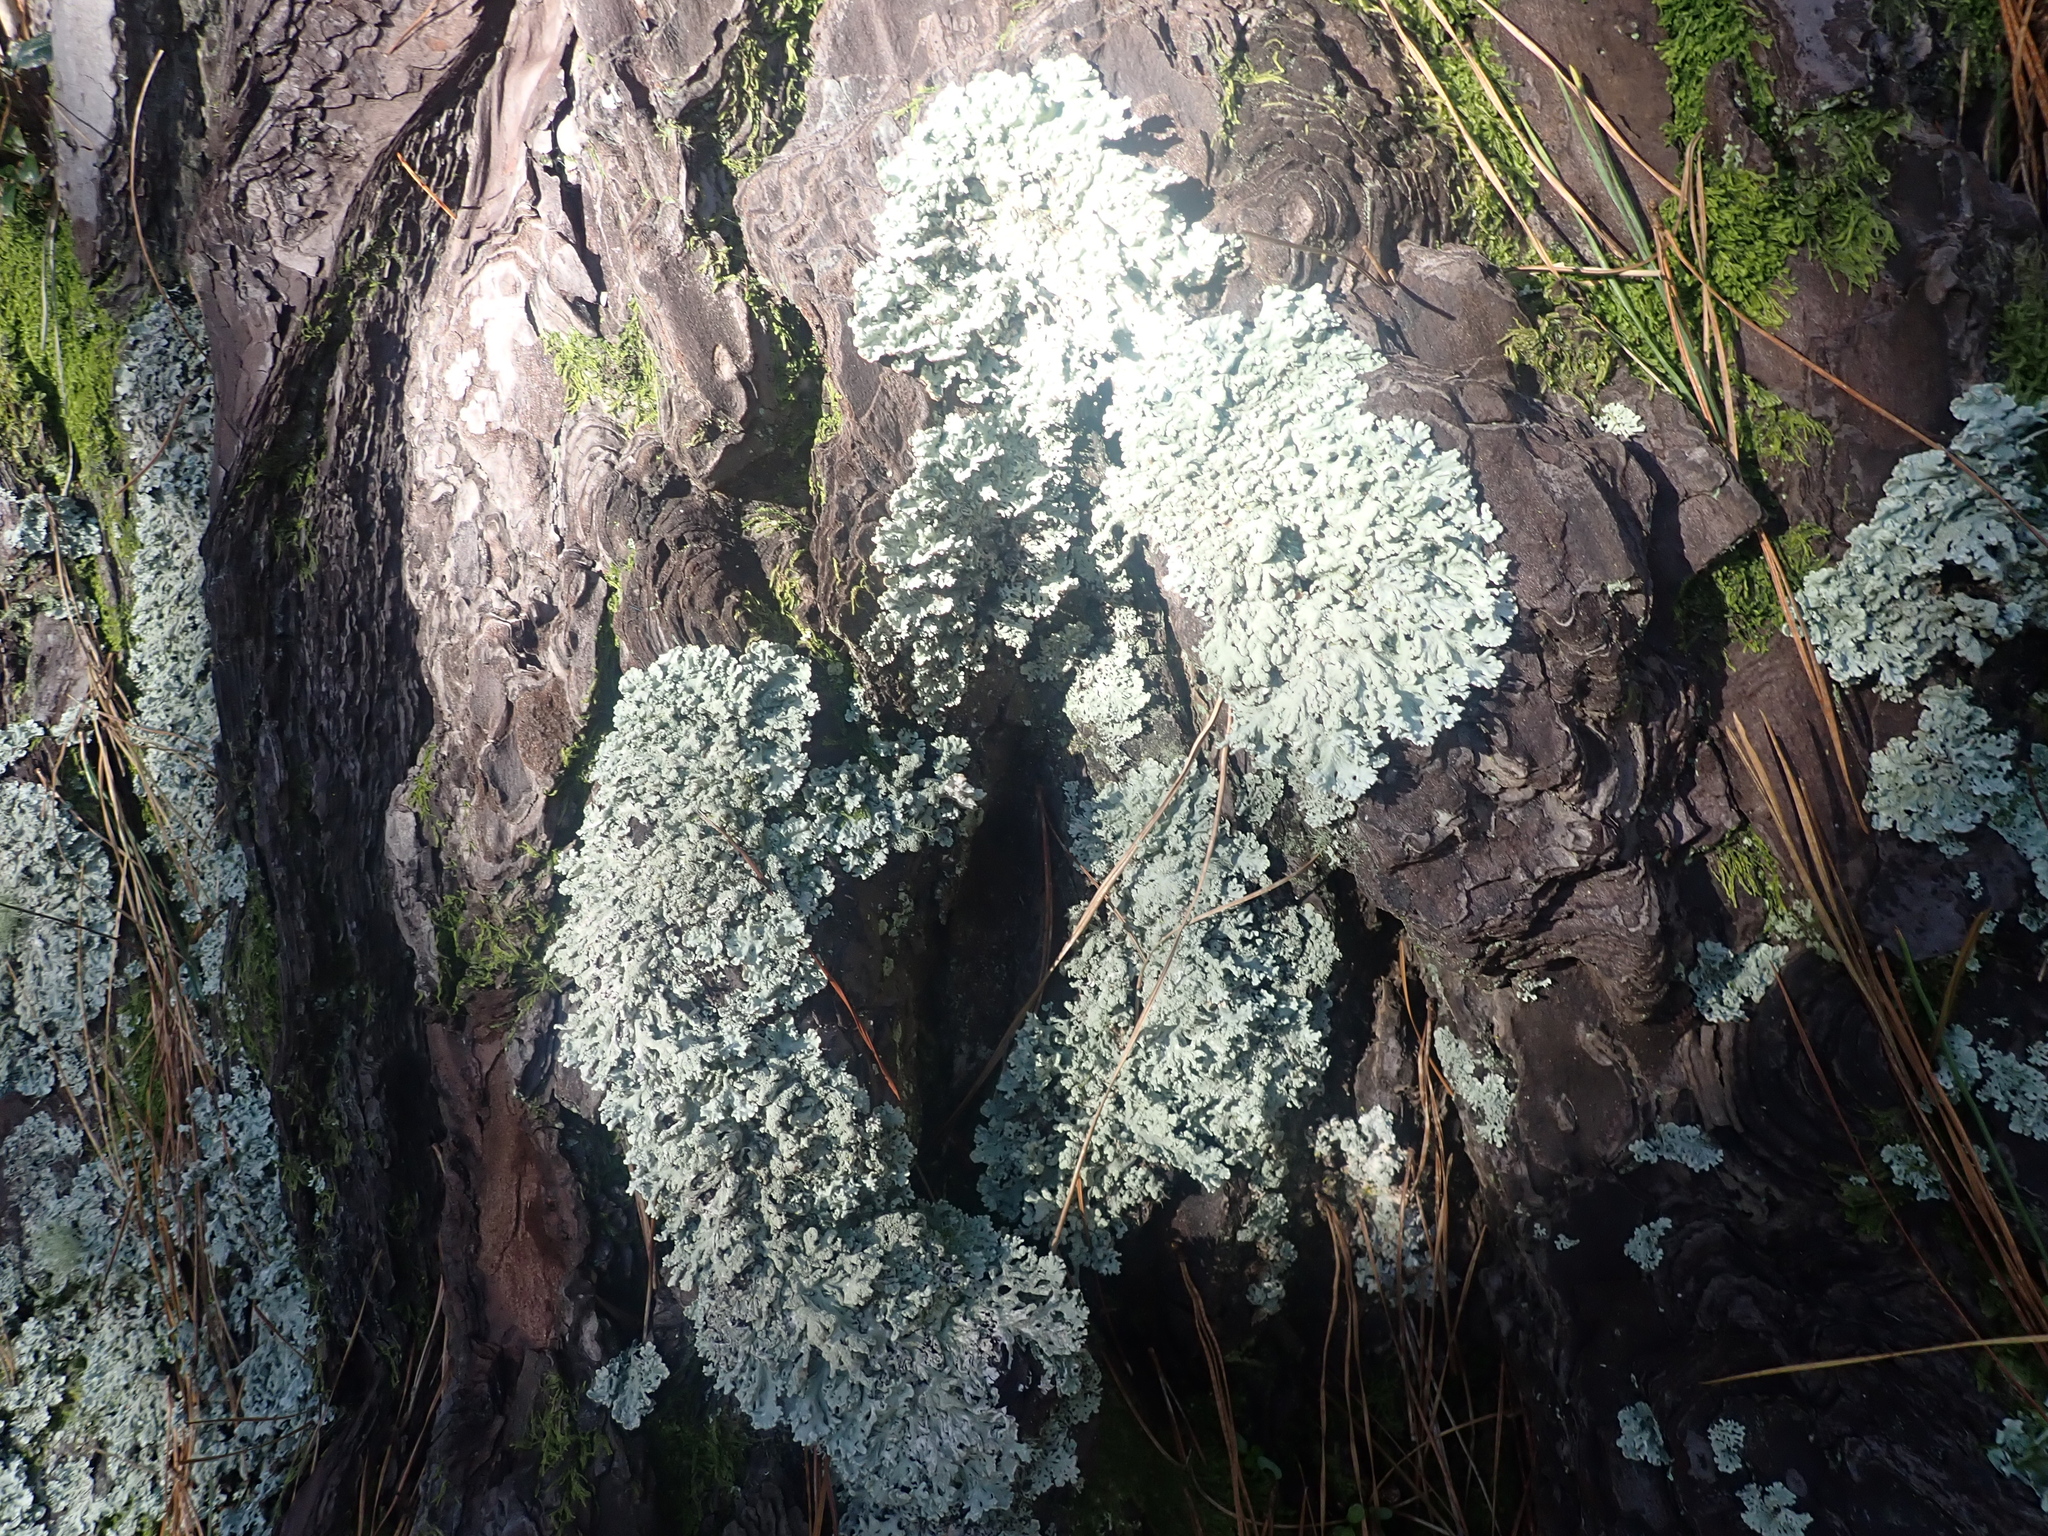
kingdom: Fungi
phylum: Ascomycota
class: Lecanoromycetes
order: Lecanorales
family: Parmeliaceae
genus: Hypogymnia
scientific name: Hypogymnia subphysodes
